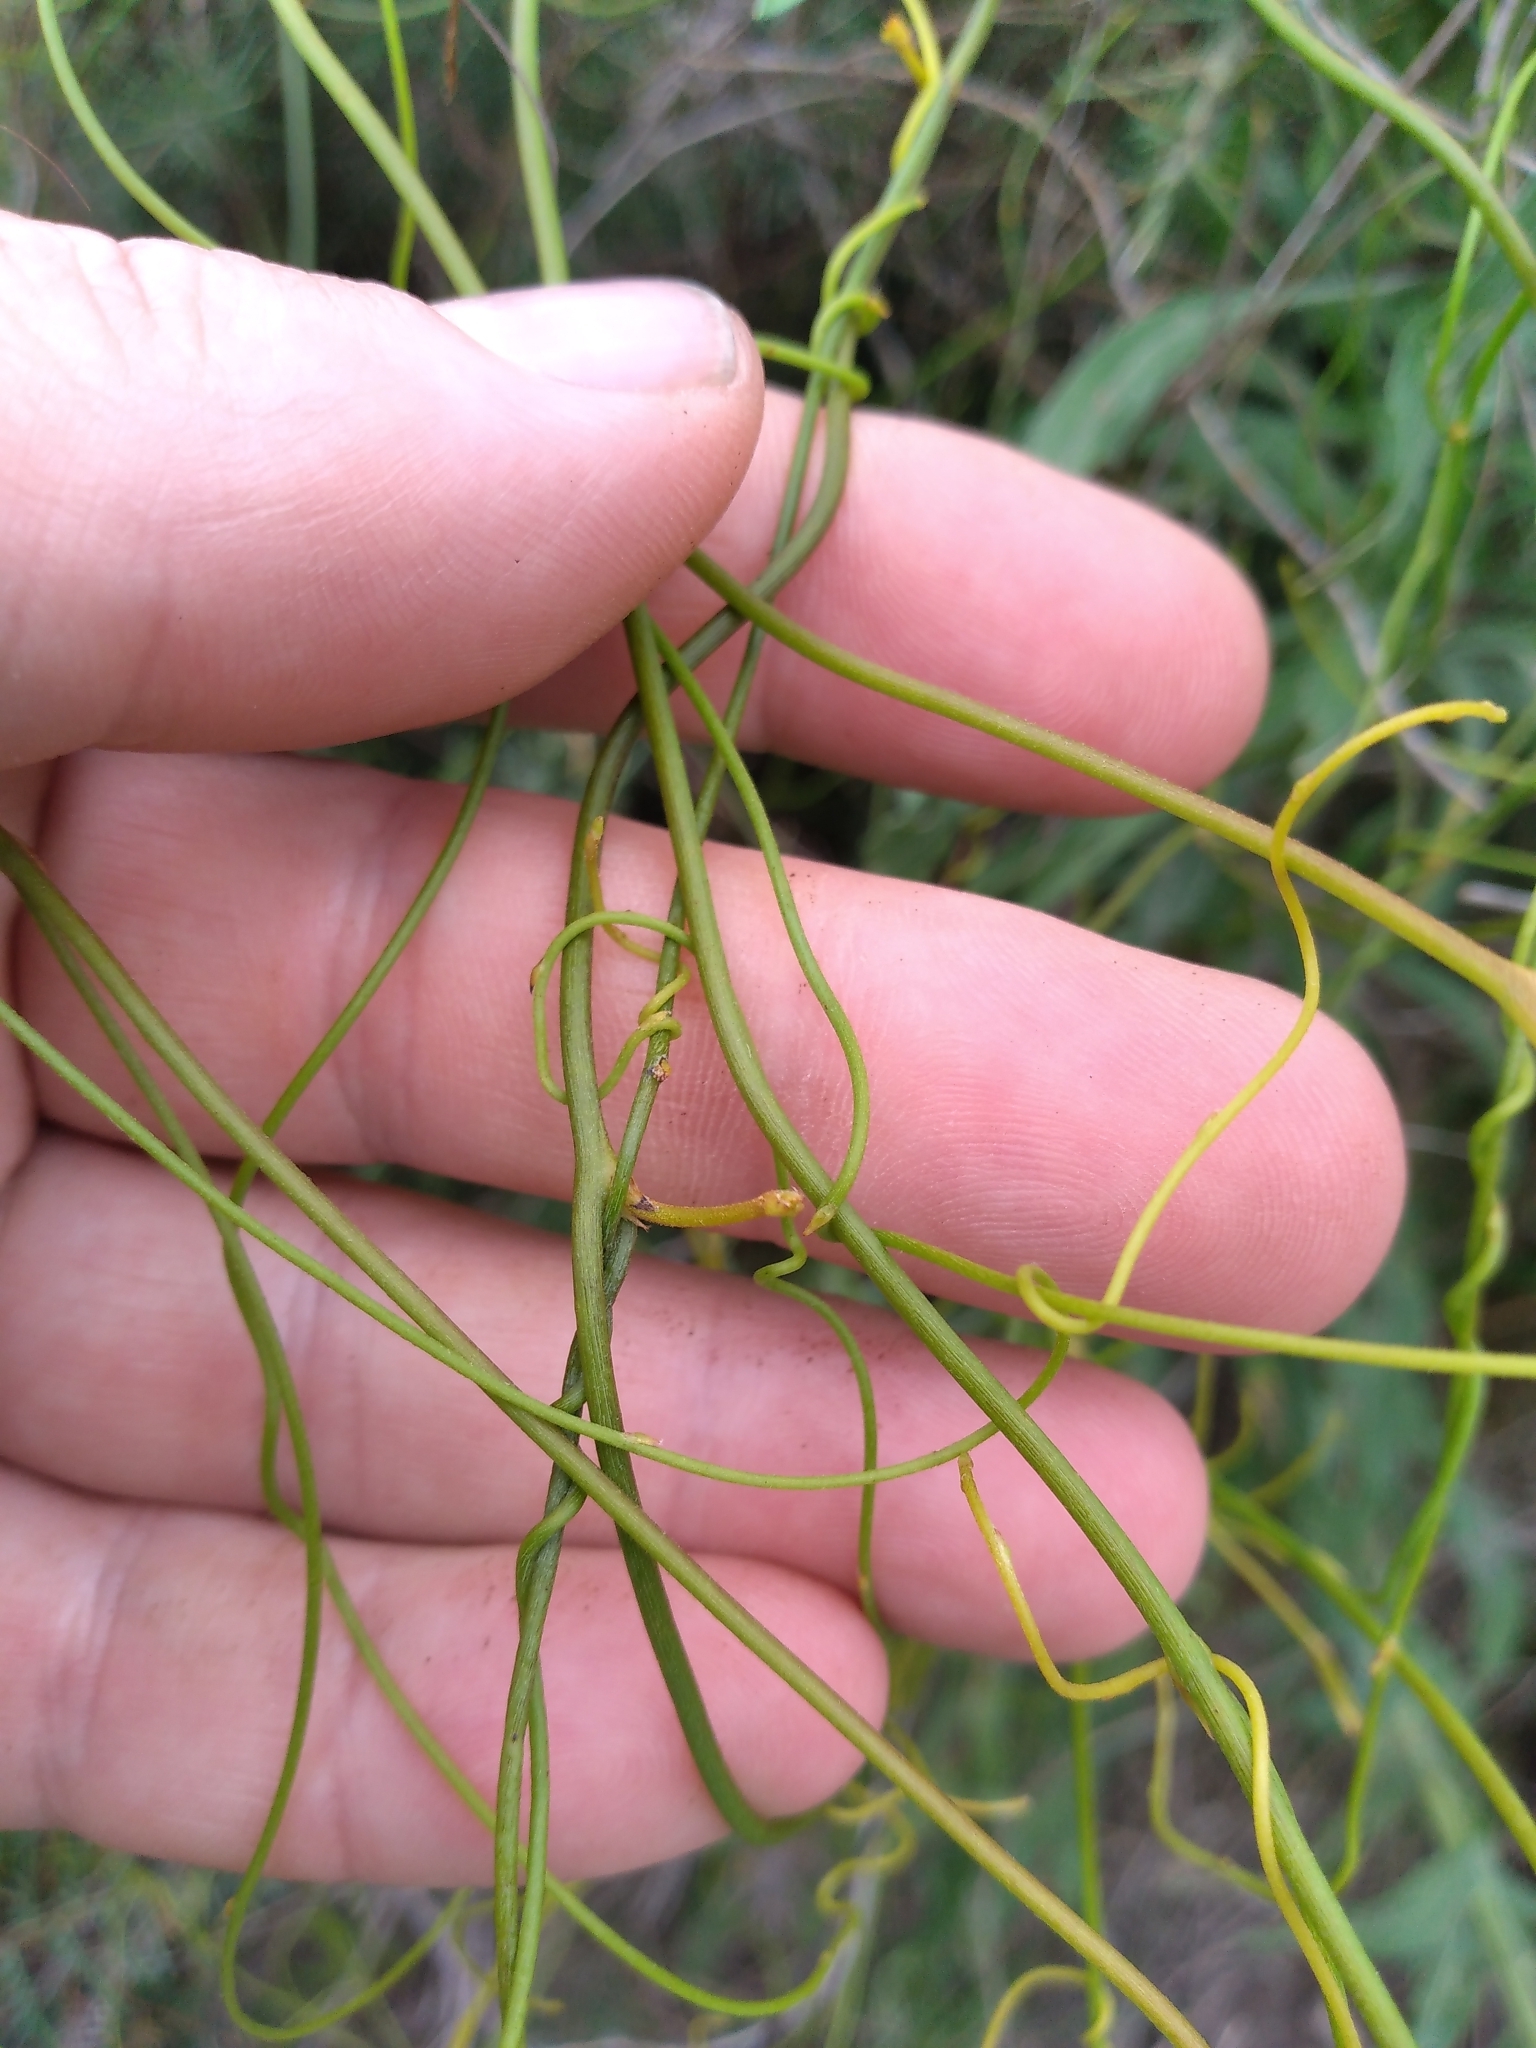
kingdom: Plantae
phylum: Tracheophyta
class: Magnoliopsida
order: Laurales
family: Lauraceae
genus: Cassytha
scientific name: Cassytha paniculata
